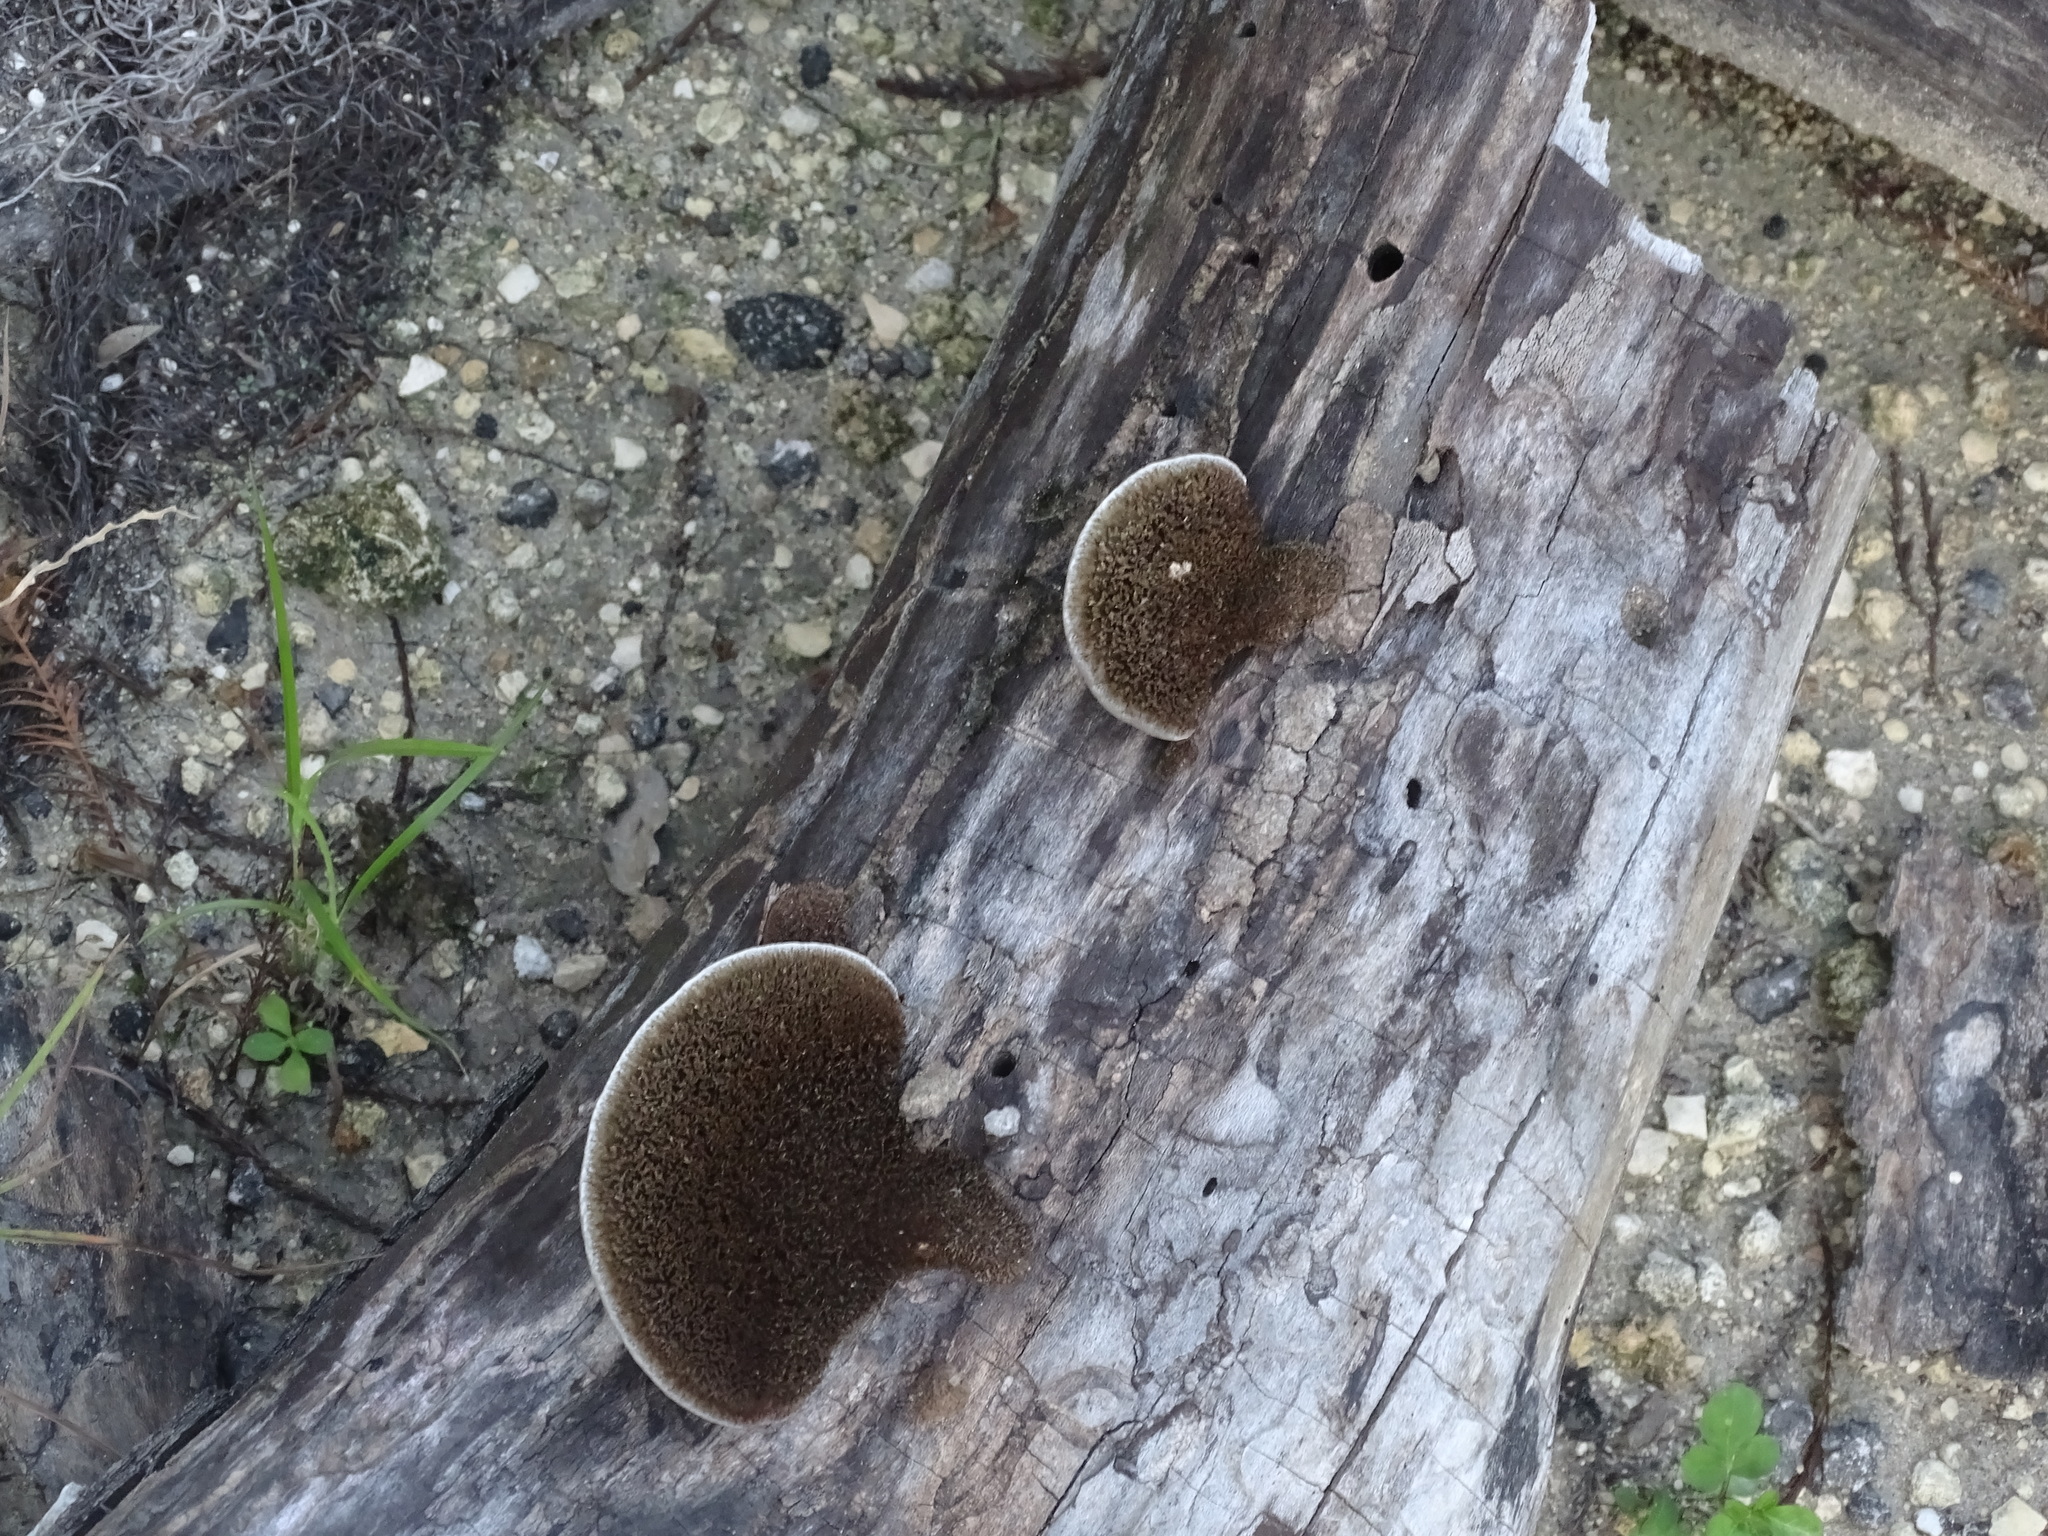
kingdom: Fungi
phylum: Basidiomycota
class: Agaricomycetes
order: Polyporales
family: Cerrenaceae
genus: Cerrena
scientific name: Cerrena hydnoides
